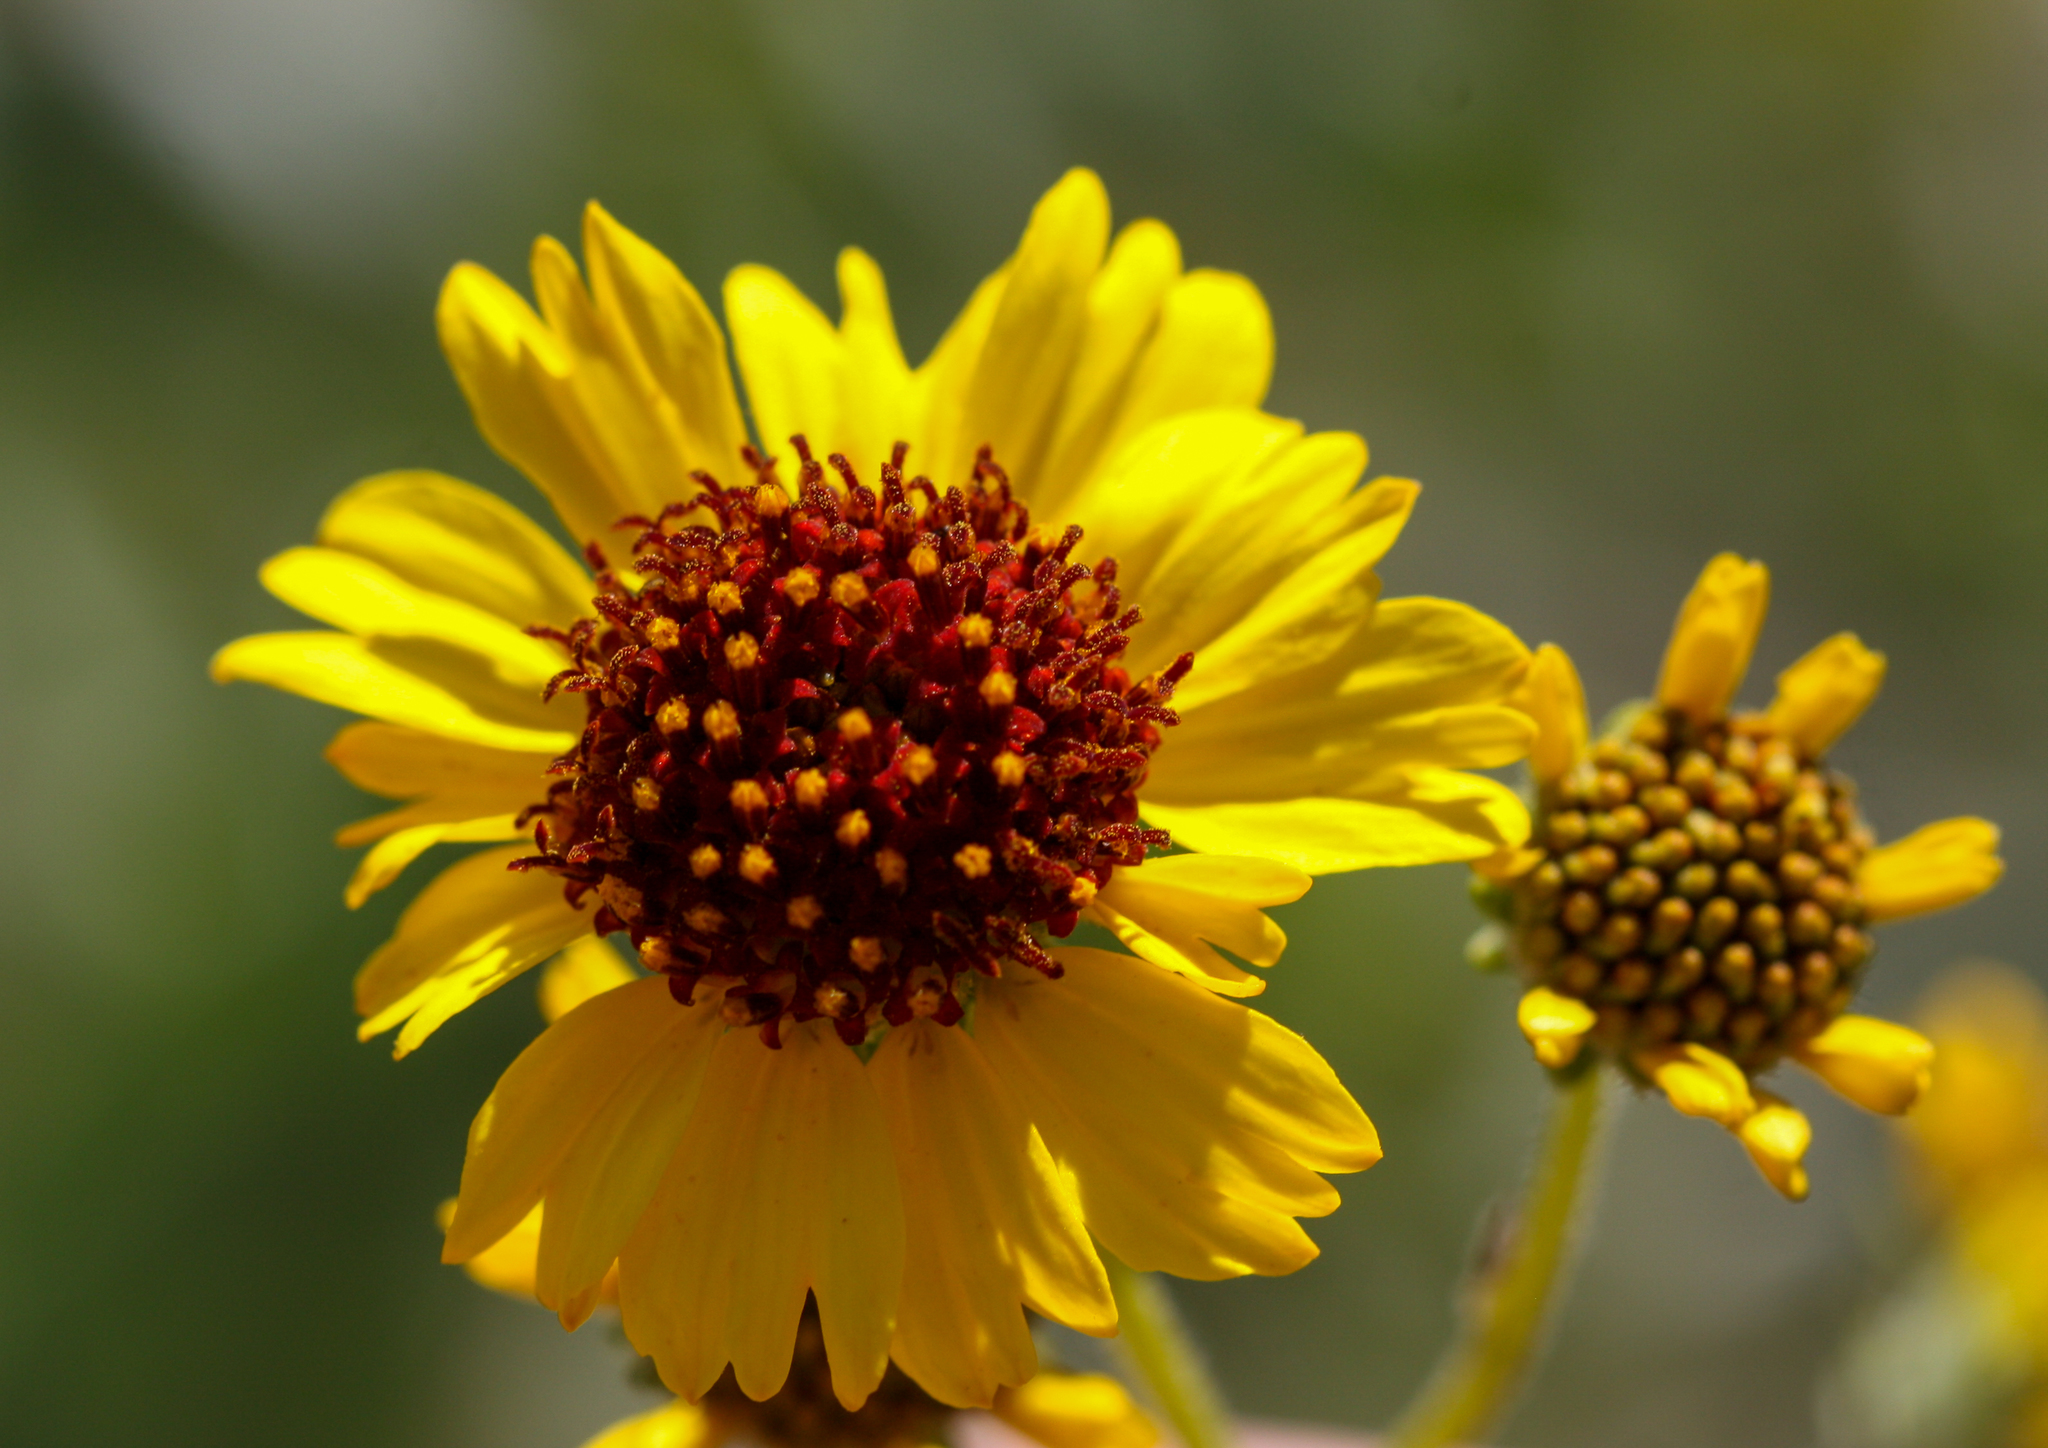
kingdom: Plantae
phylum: Tracheophyta
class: Magnoliopsida
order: Asterales
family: Asteraceae
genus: Encelia
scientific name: Encelia farinosa
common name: Brittlebush
